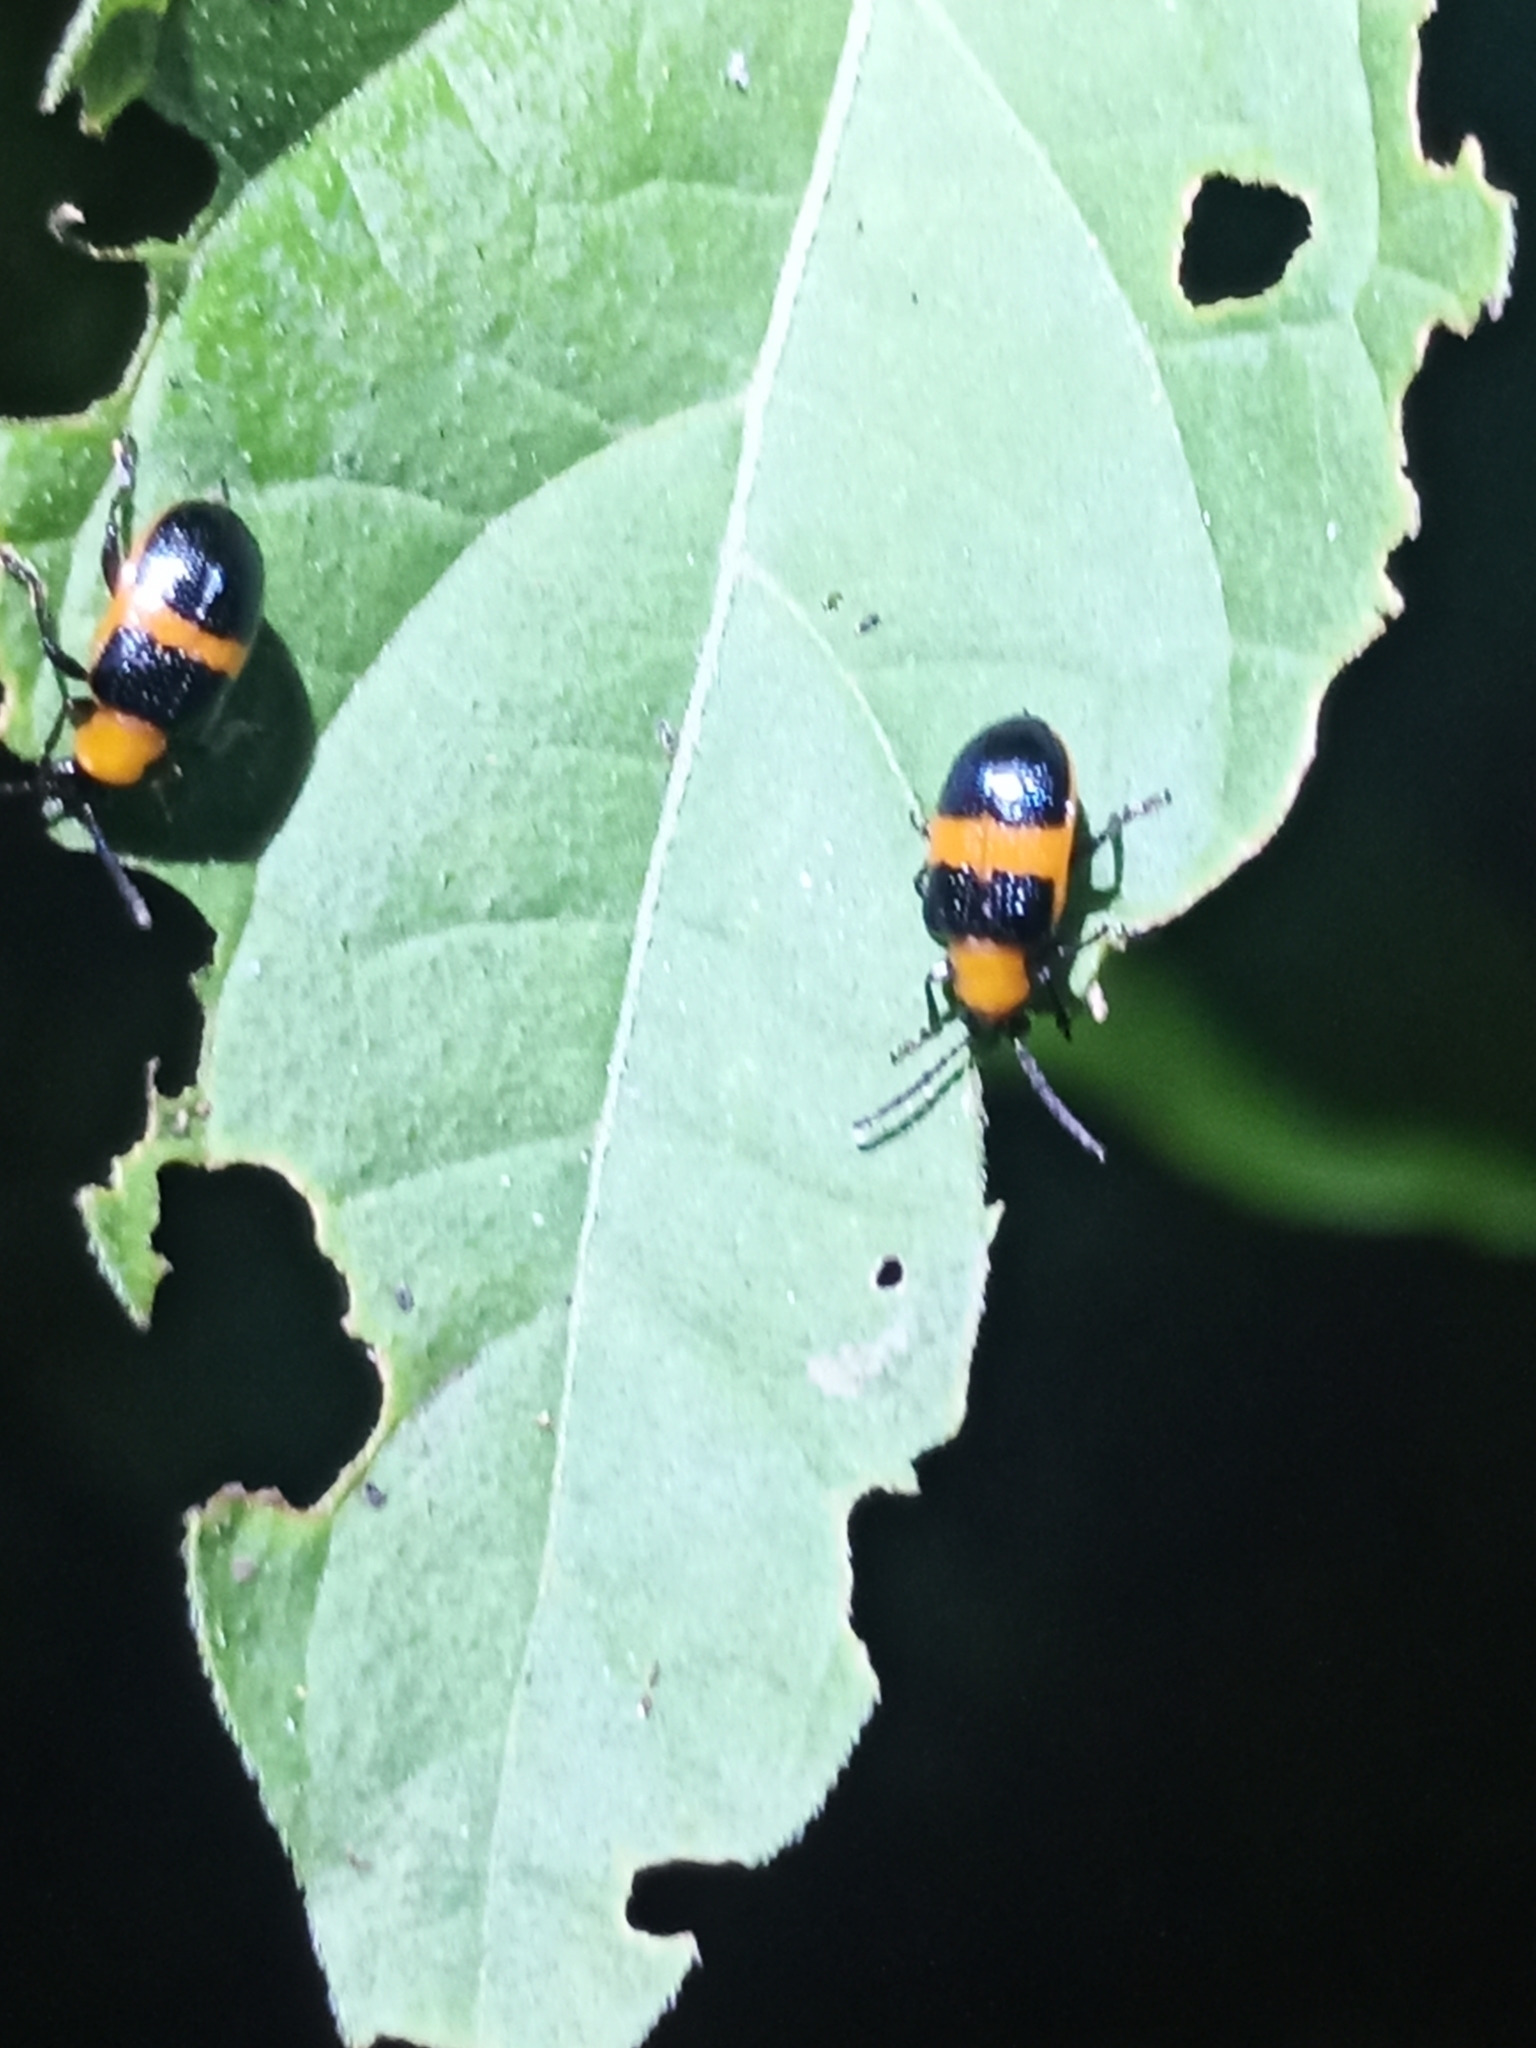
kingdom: Animalia
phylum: Arthropoda
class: Insecta
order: Coleoptera
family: Chrysomelidae
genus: Lema
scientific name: Lema solani
